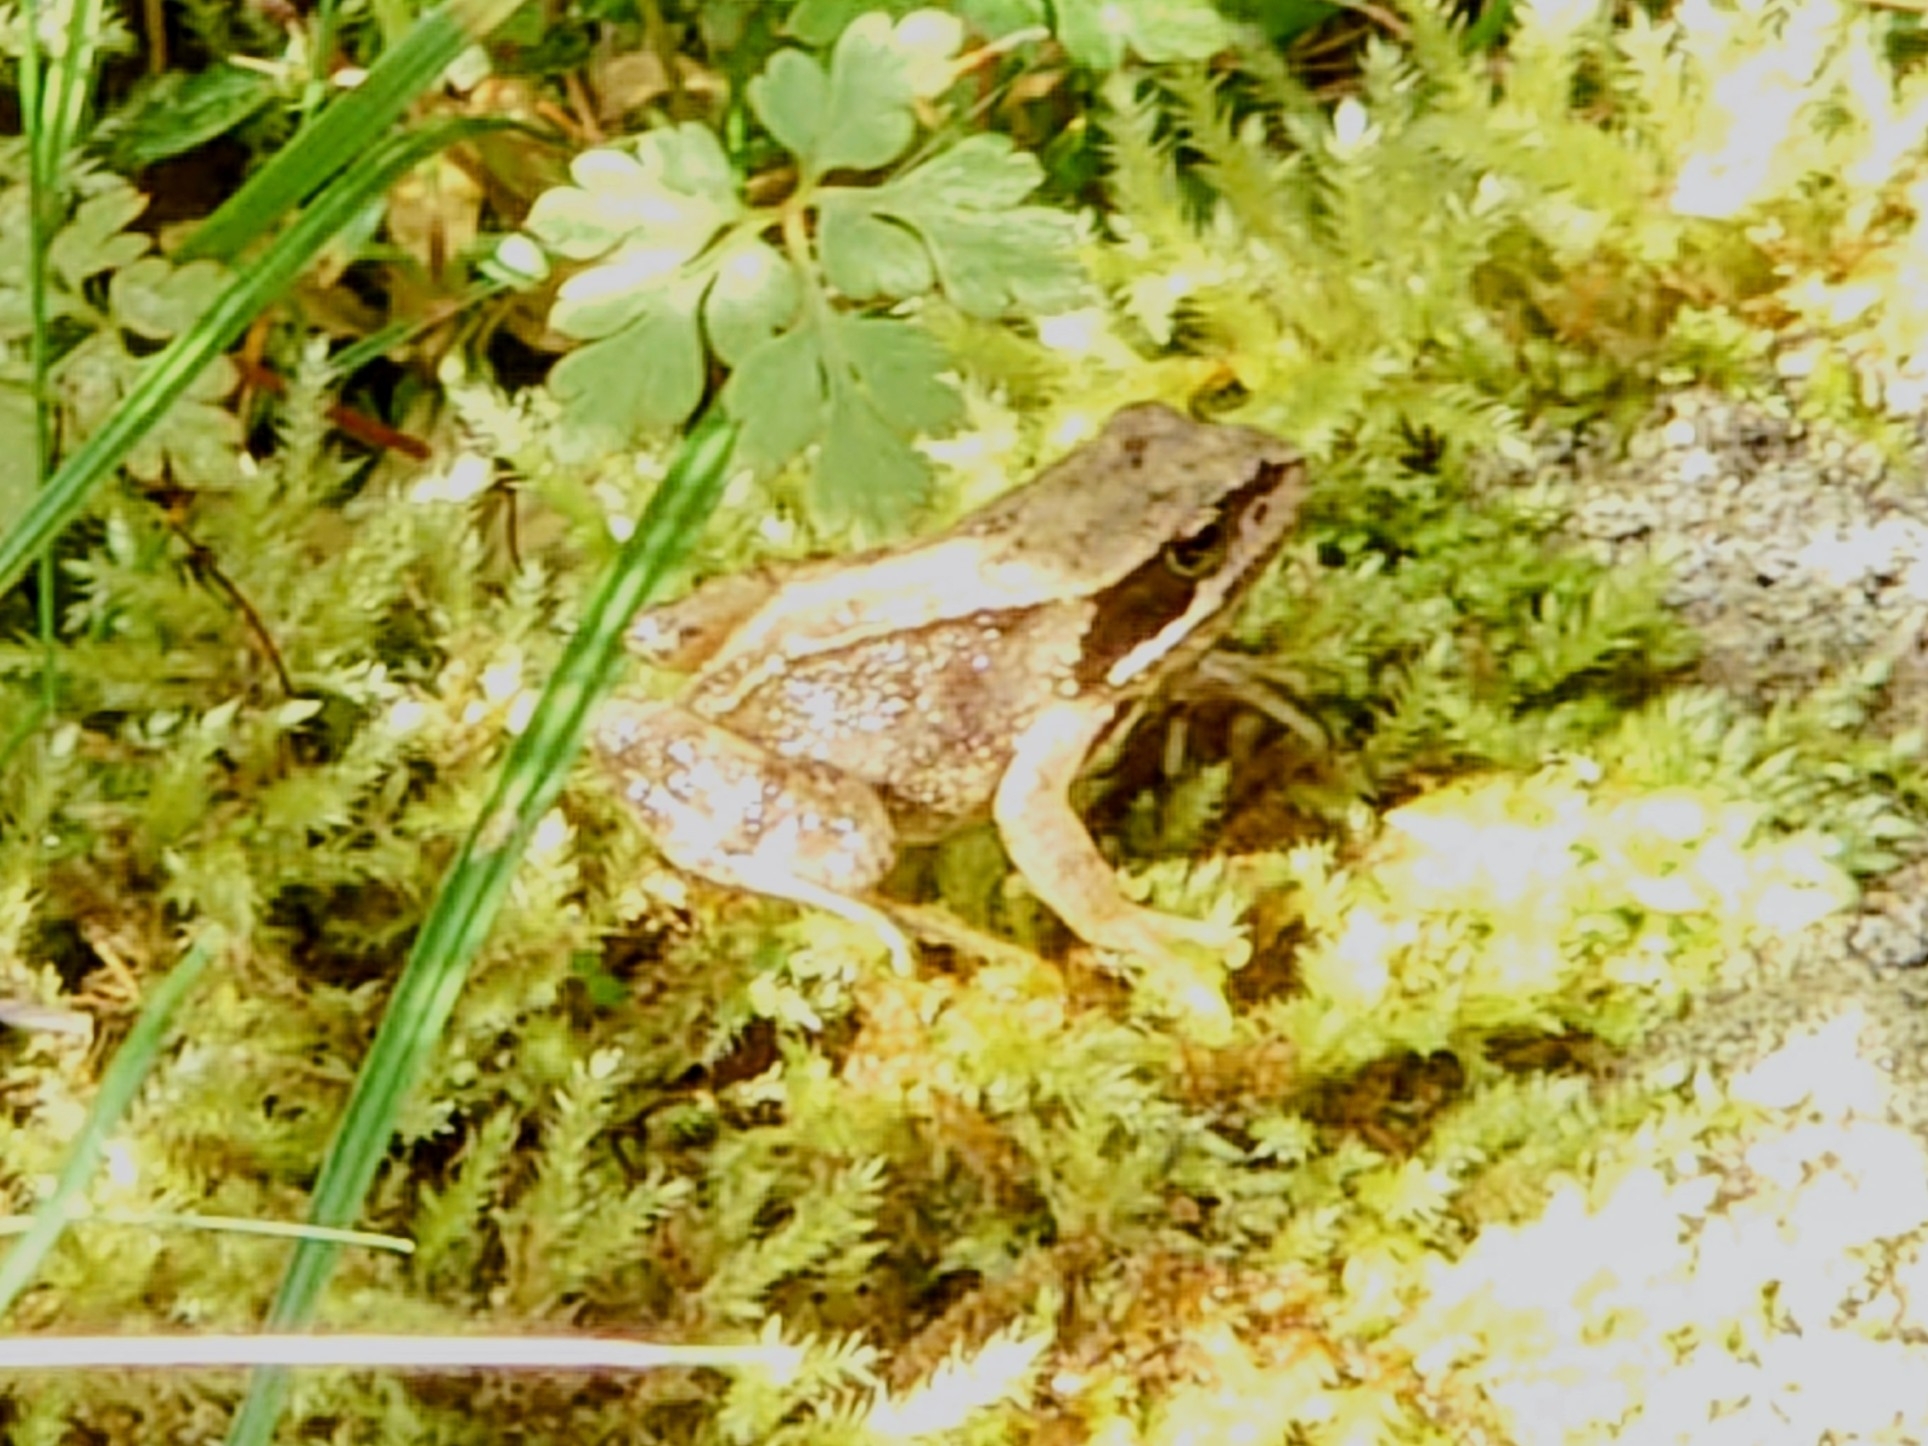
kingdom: Animalia
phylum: Chordata
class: Amphibia
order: Anura
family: Ranidae
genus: Rana
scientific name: Rana temporaria
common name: Common frog
